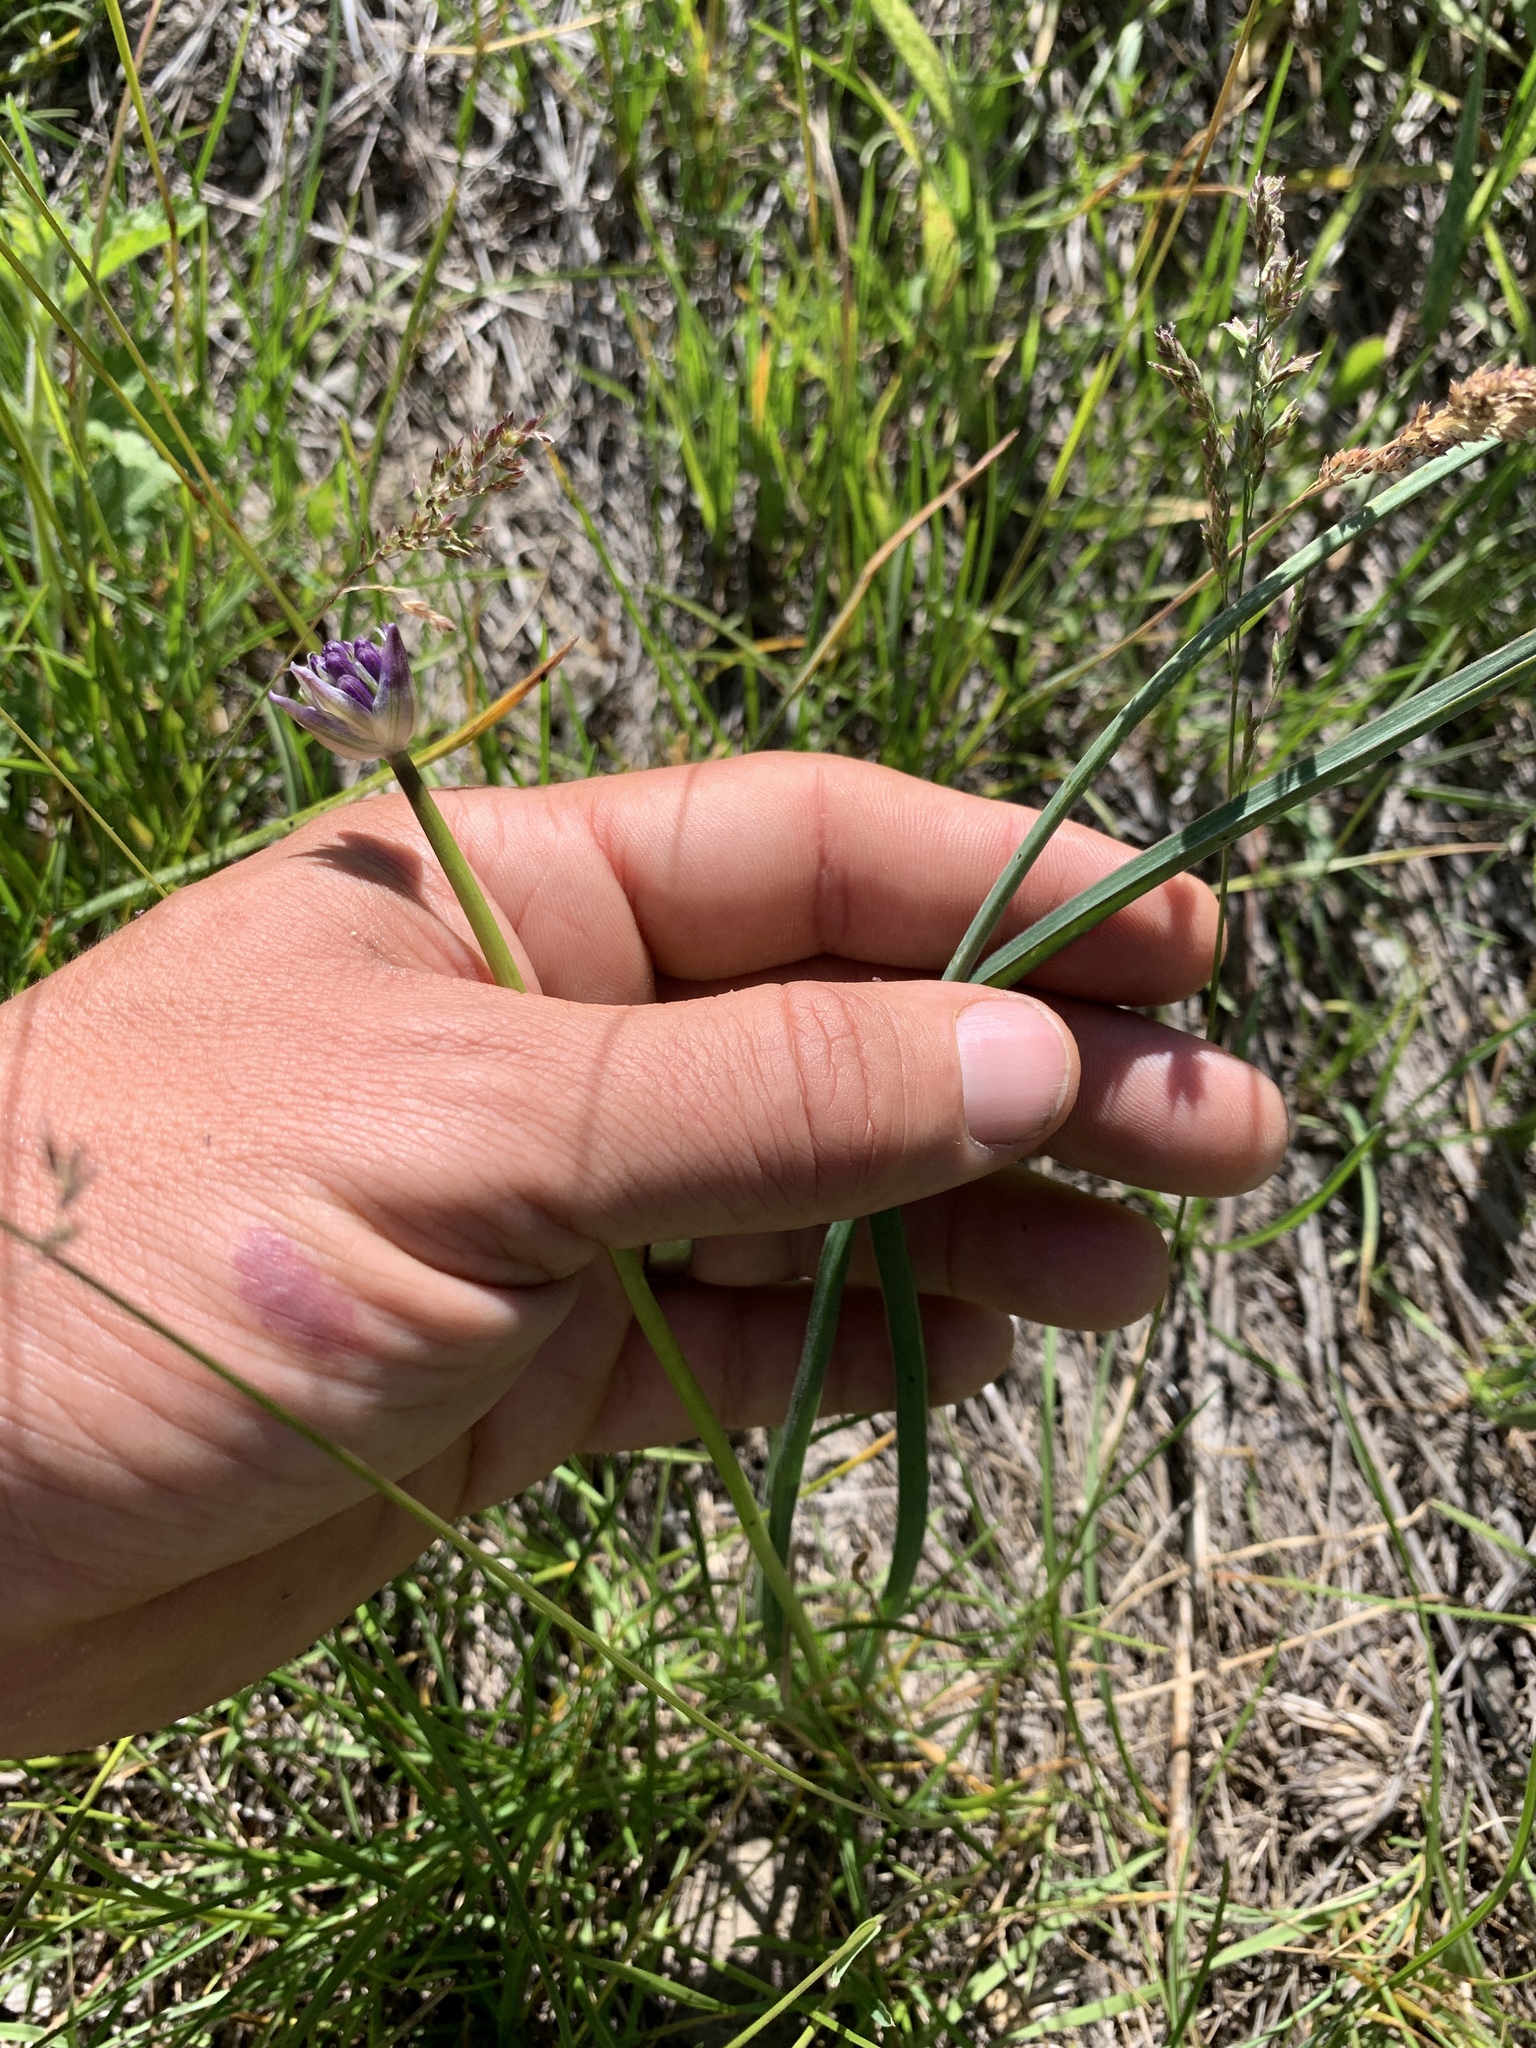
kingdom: Plantae
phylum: Tracheophyta
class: Liliopsida
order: Asparagales
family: Asparagaceae
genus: Dipterostemon
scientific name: Dipterostemon capitatus
